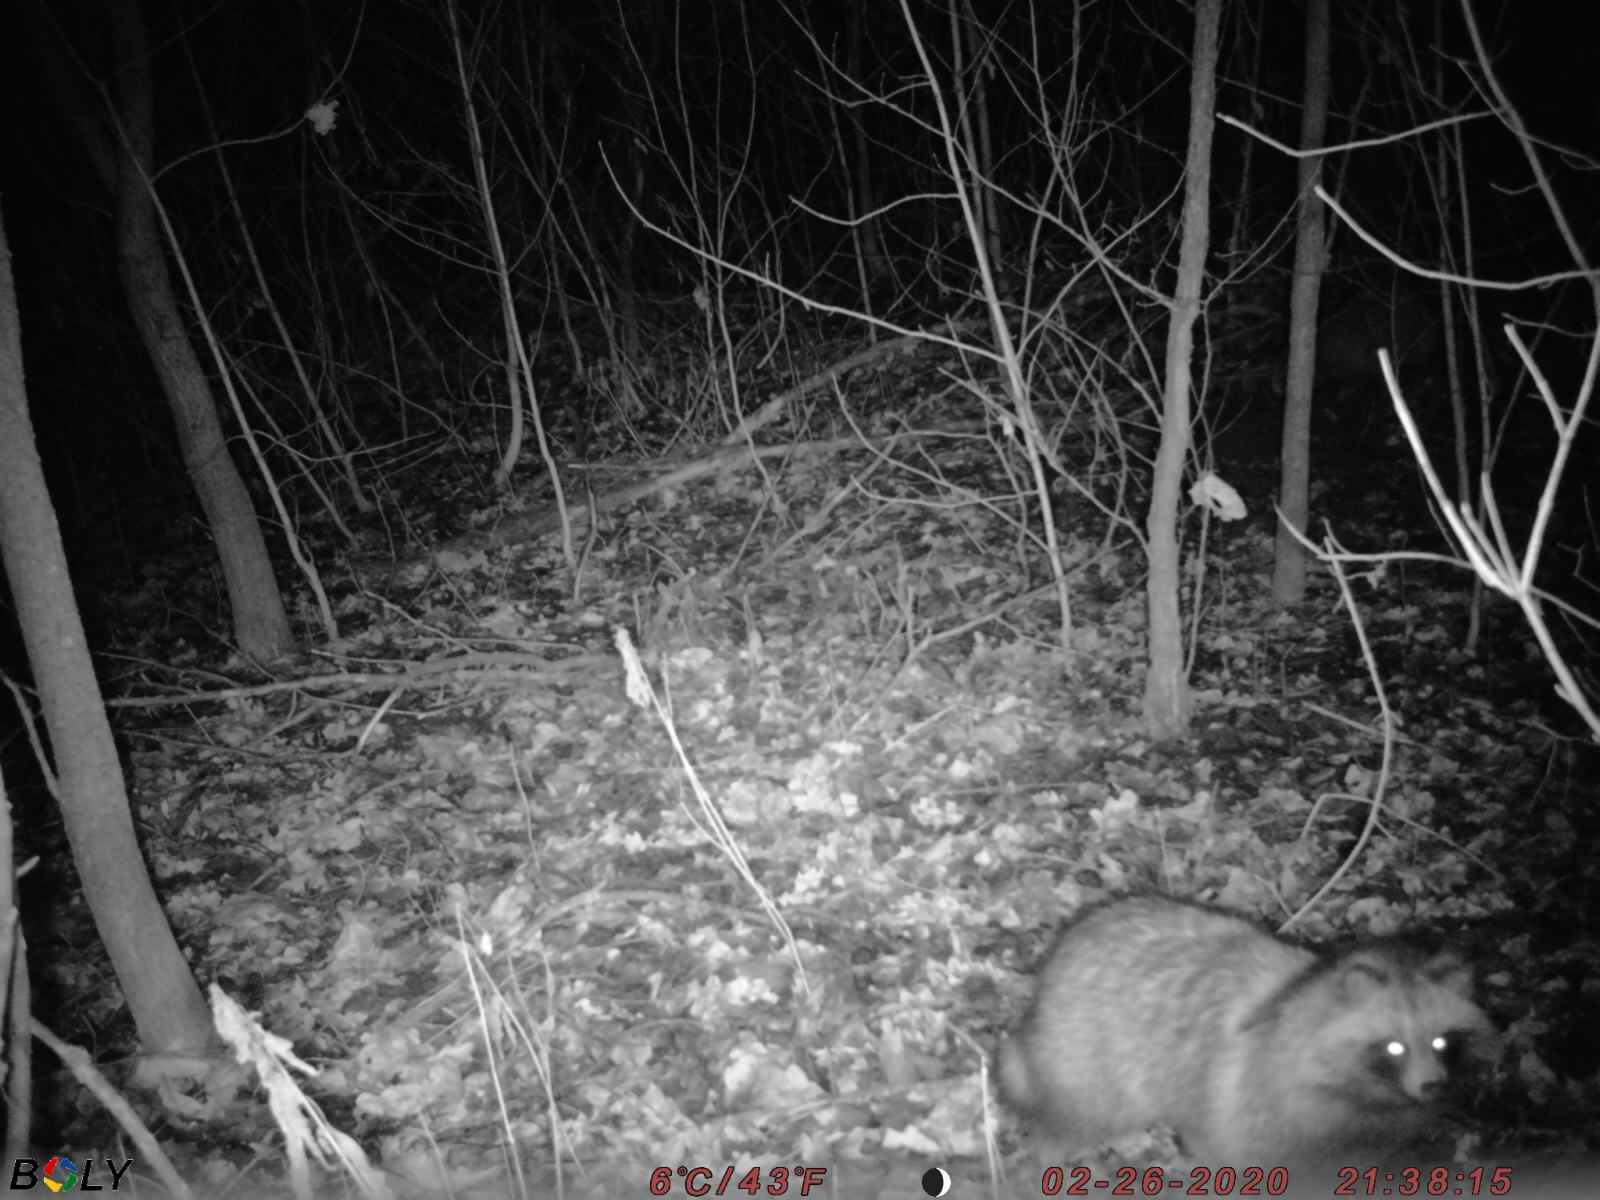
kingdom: Animalia
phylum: Chordata
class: Mammalia
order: Carnivora
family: Canidae
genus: Nyctereutes
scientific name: Nyctereutes procyonoides
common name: Raccoon dog
